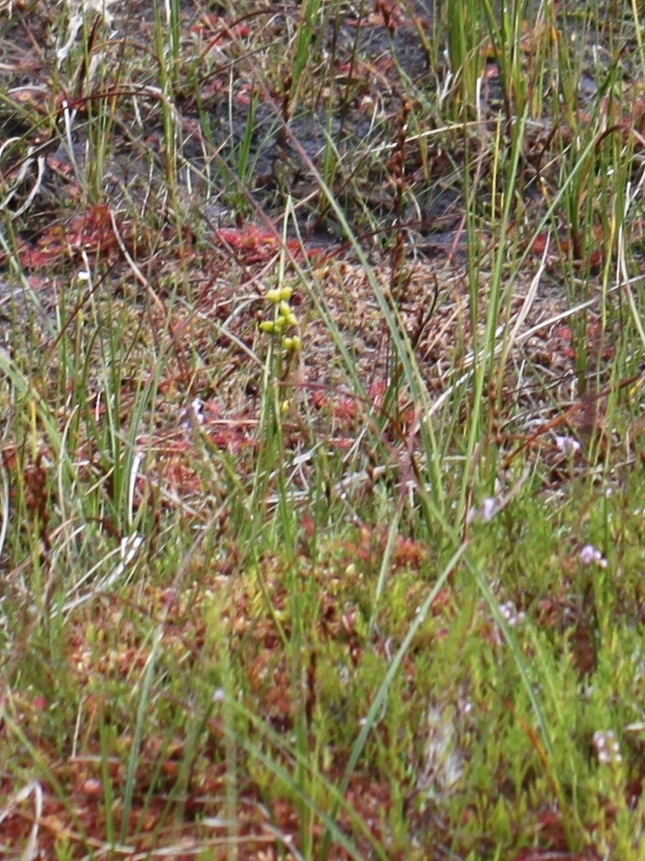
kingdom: Plantae
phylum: Tracheophyta
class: Liliopsida
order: Alismatales
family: Scheuchzeriaceae
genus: Scheuchzeria
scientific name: Scheuchzeria palustris
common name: Rannoch-rush
